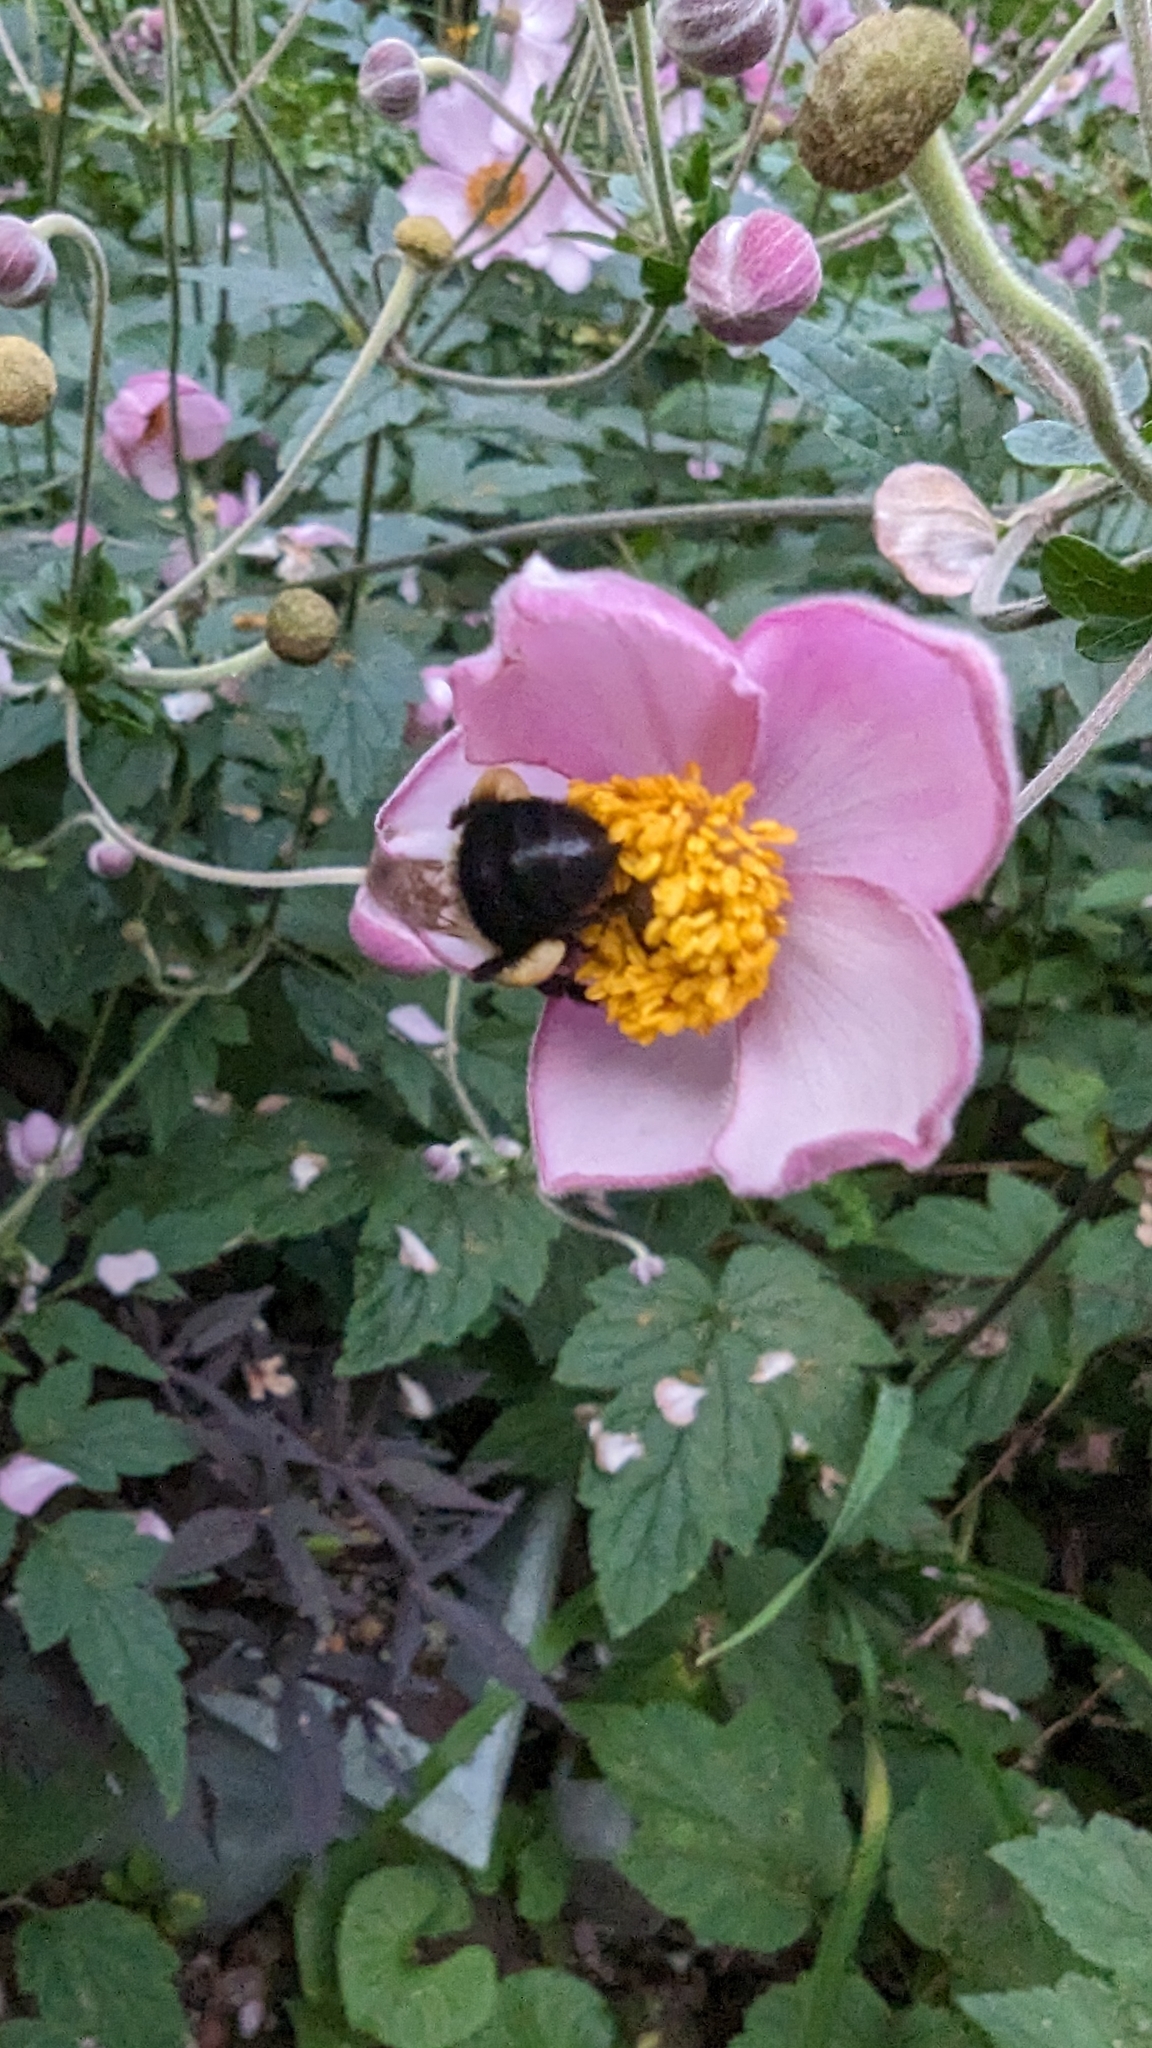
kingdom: Animalia
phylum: Arthropoda
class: Insecta
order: Hymenoptera
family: Apidae
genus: Bombus
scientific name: Bombus impatiens
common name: Common eastern bumble bee
